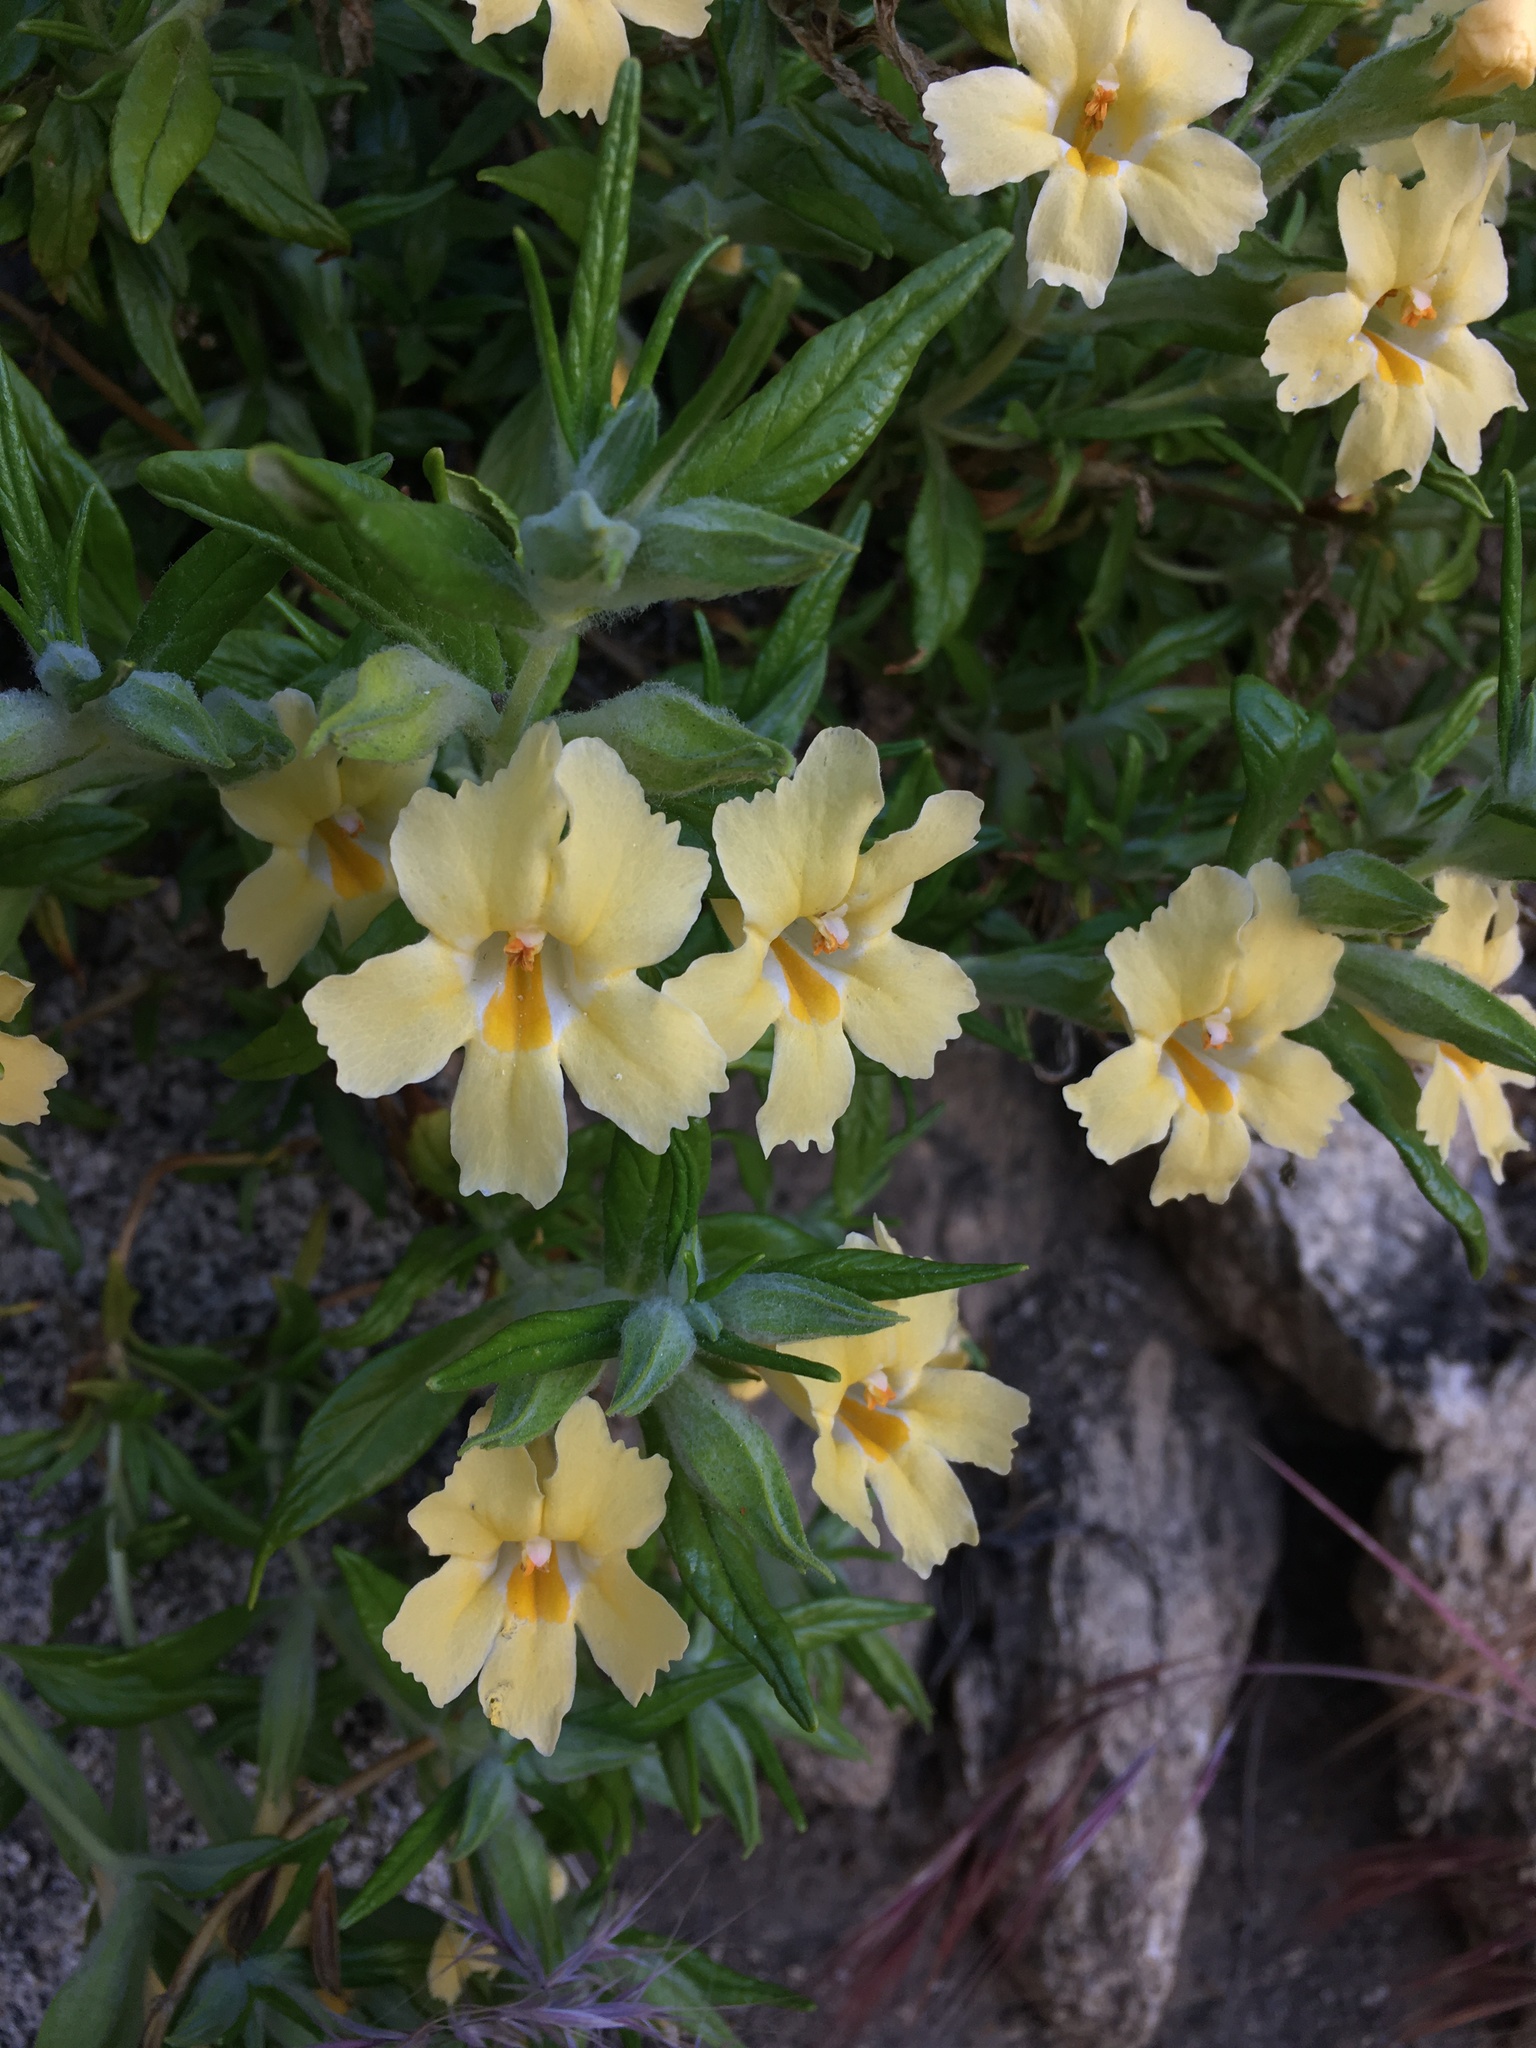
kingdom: Plantae
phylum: Tracheophyta
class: Magnoliopsida
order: Lamiales
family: Phrymaceae
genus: Diplacus
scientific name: Diplacus calycinus
